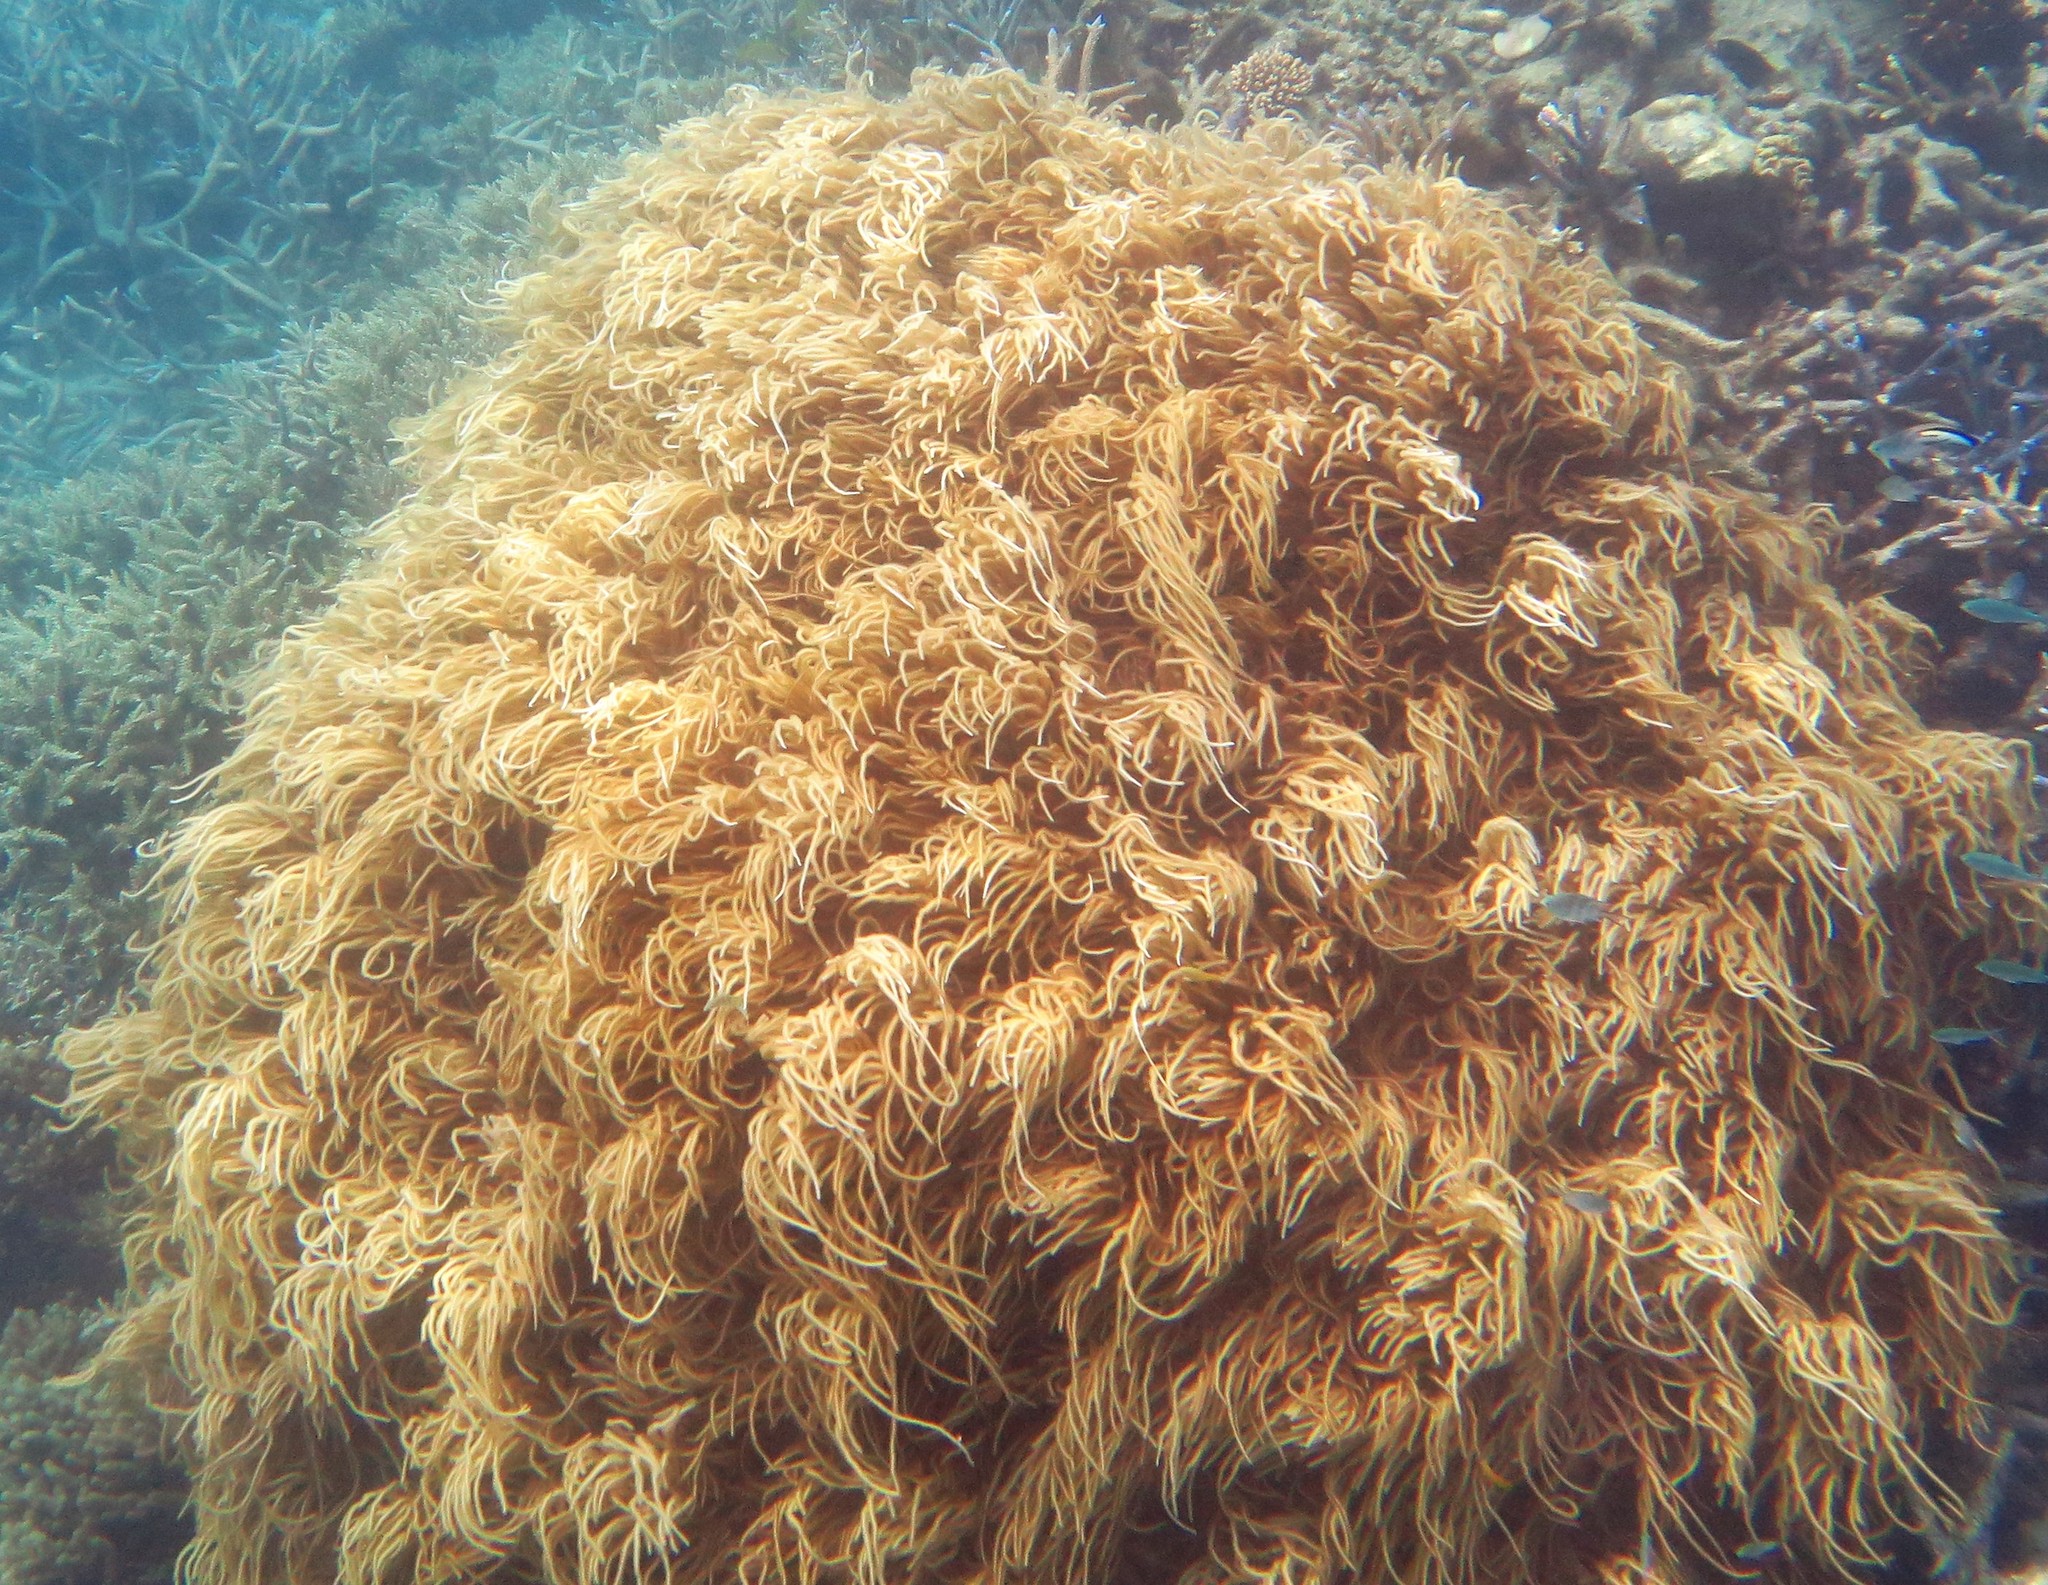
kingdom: Animalia
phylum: Cnidaria
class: Anthozoa
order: Malacalcyonacea
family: Sarcophytidae
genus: Sclerophytum
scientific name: Sclerophytum flexibile
